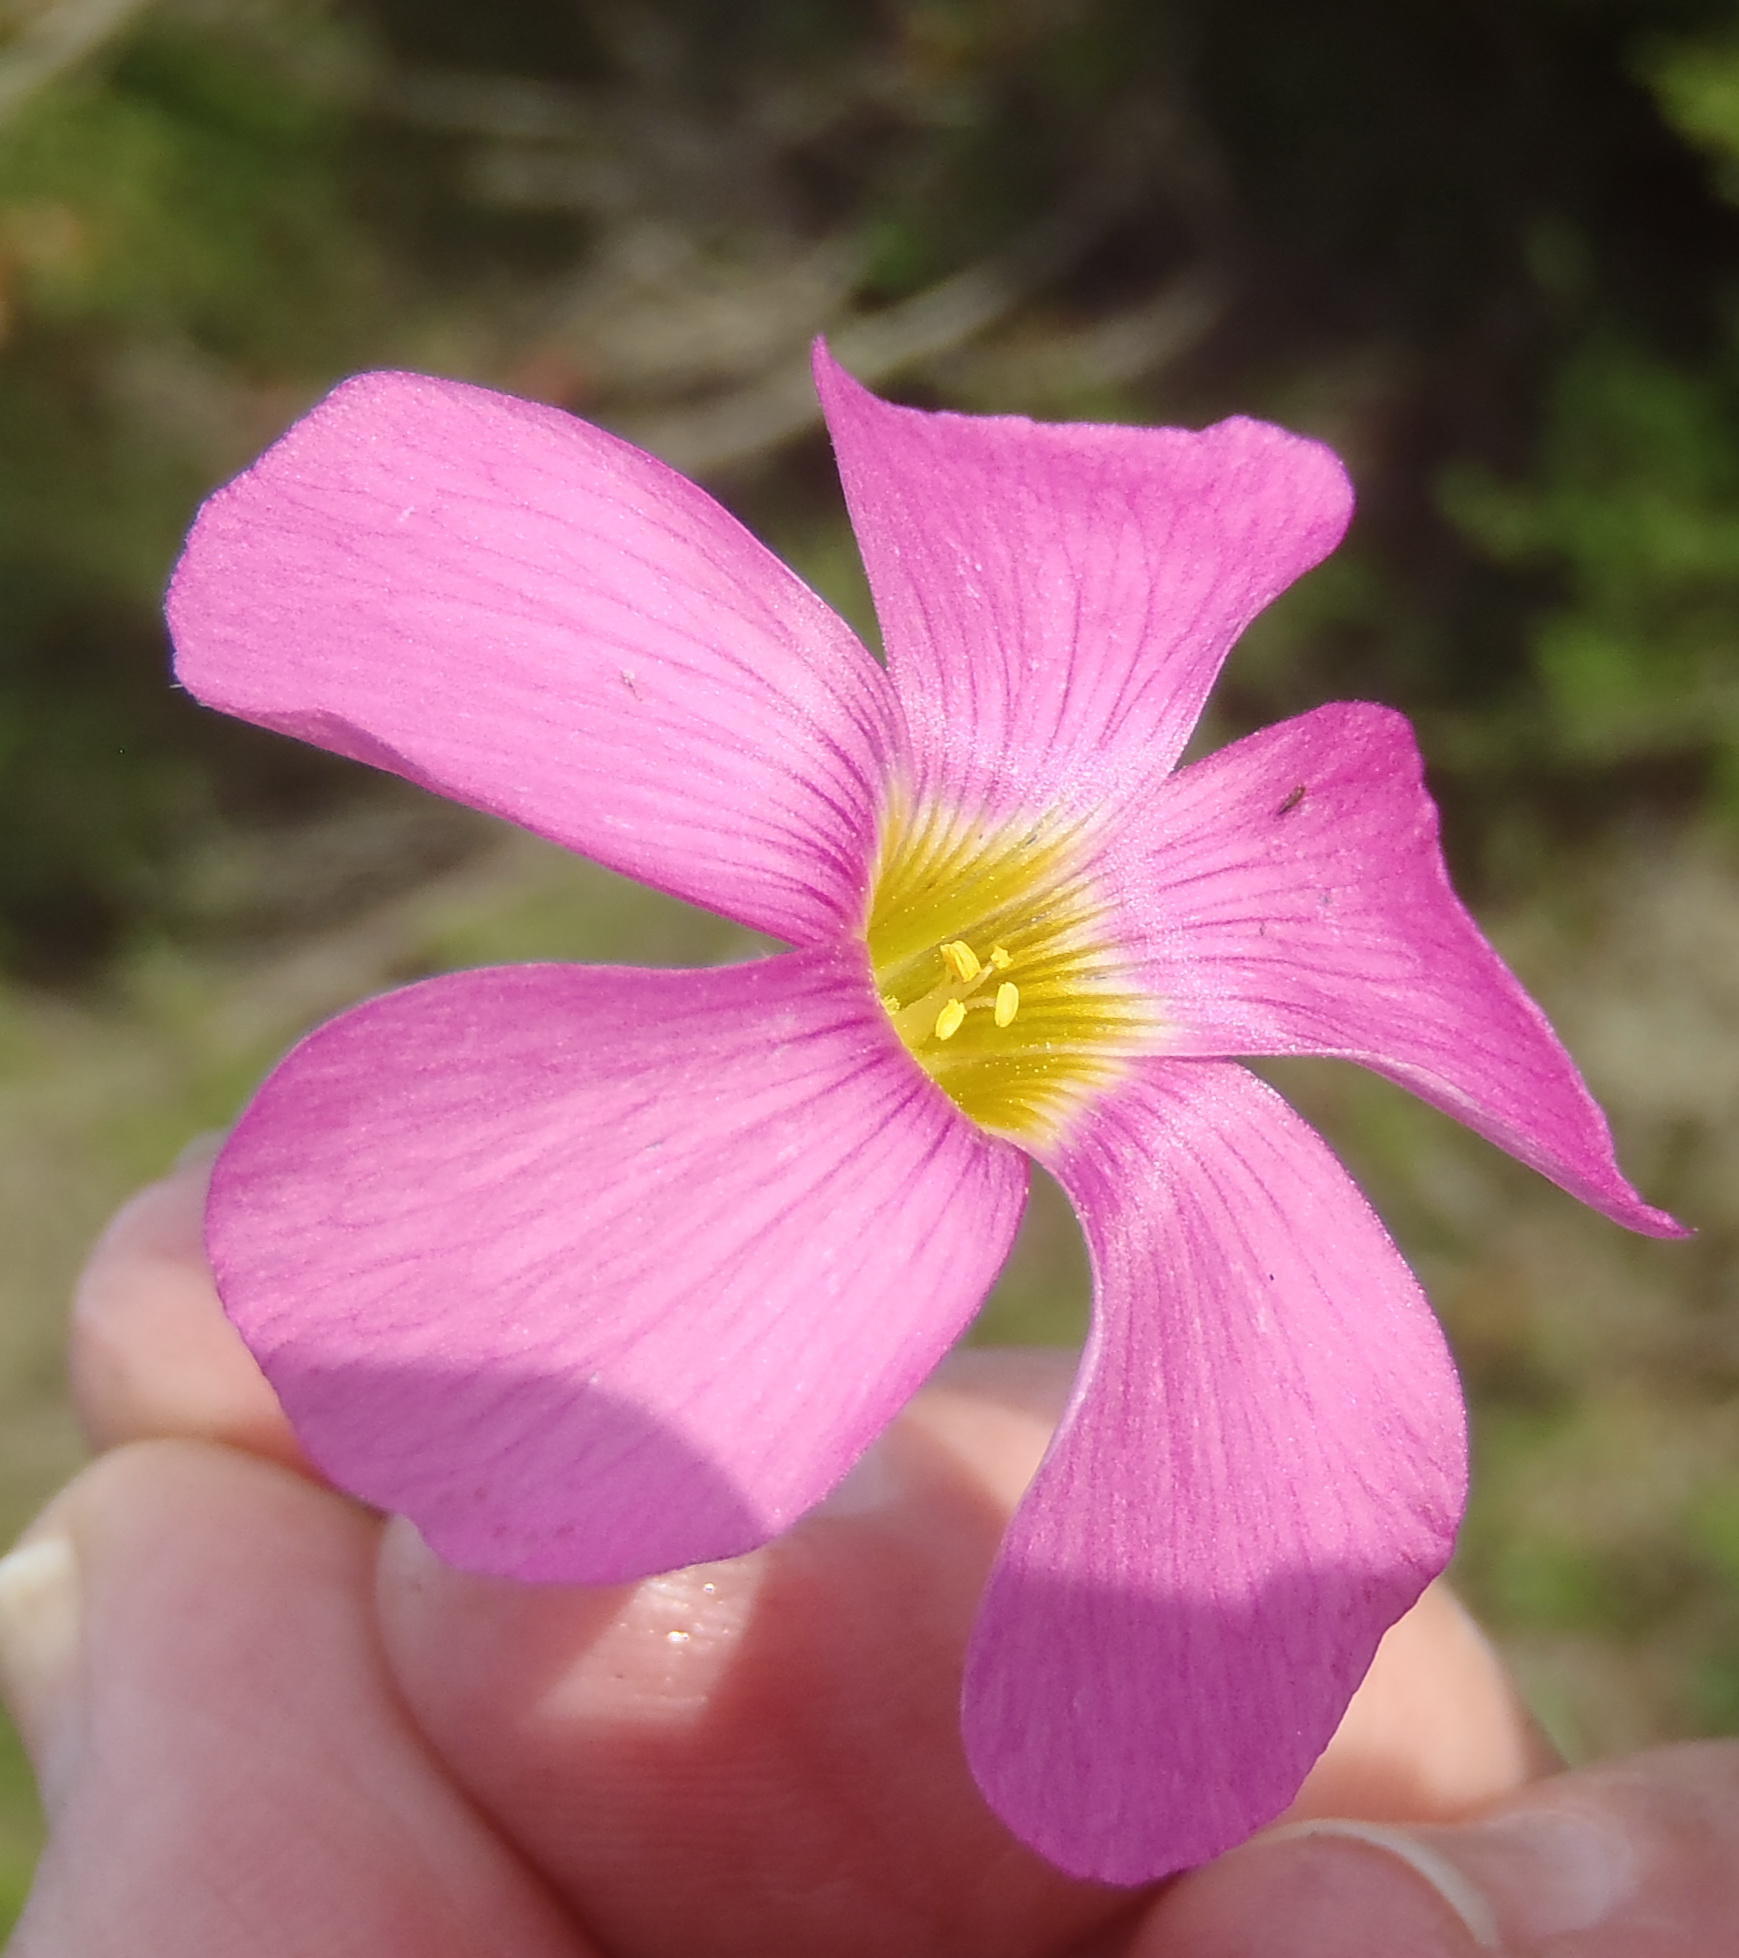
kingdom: Plantae
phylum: Tracheophyta
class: Magnoliopsida
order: Oxalidales
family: Oxalidaceae
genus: Oxalis
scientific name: Oxalis imbricata
